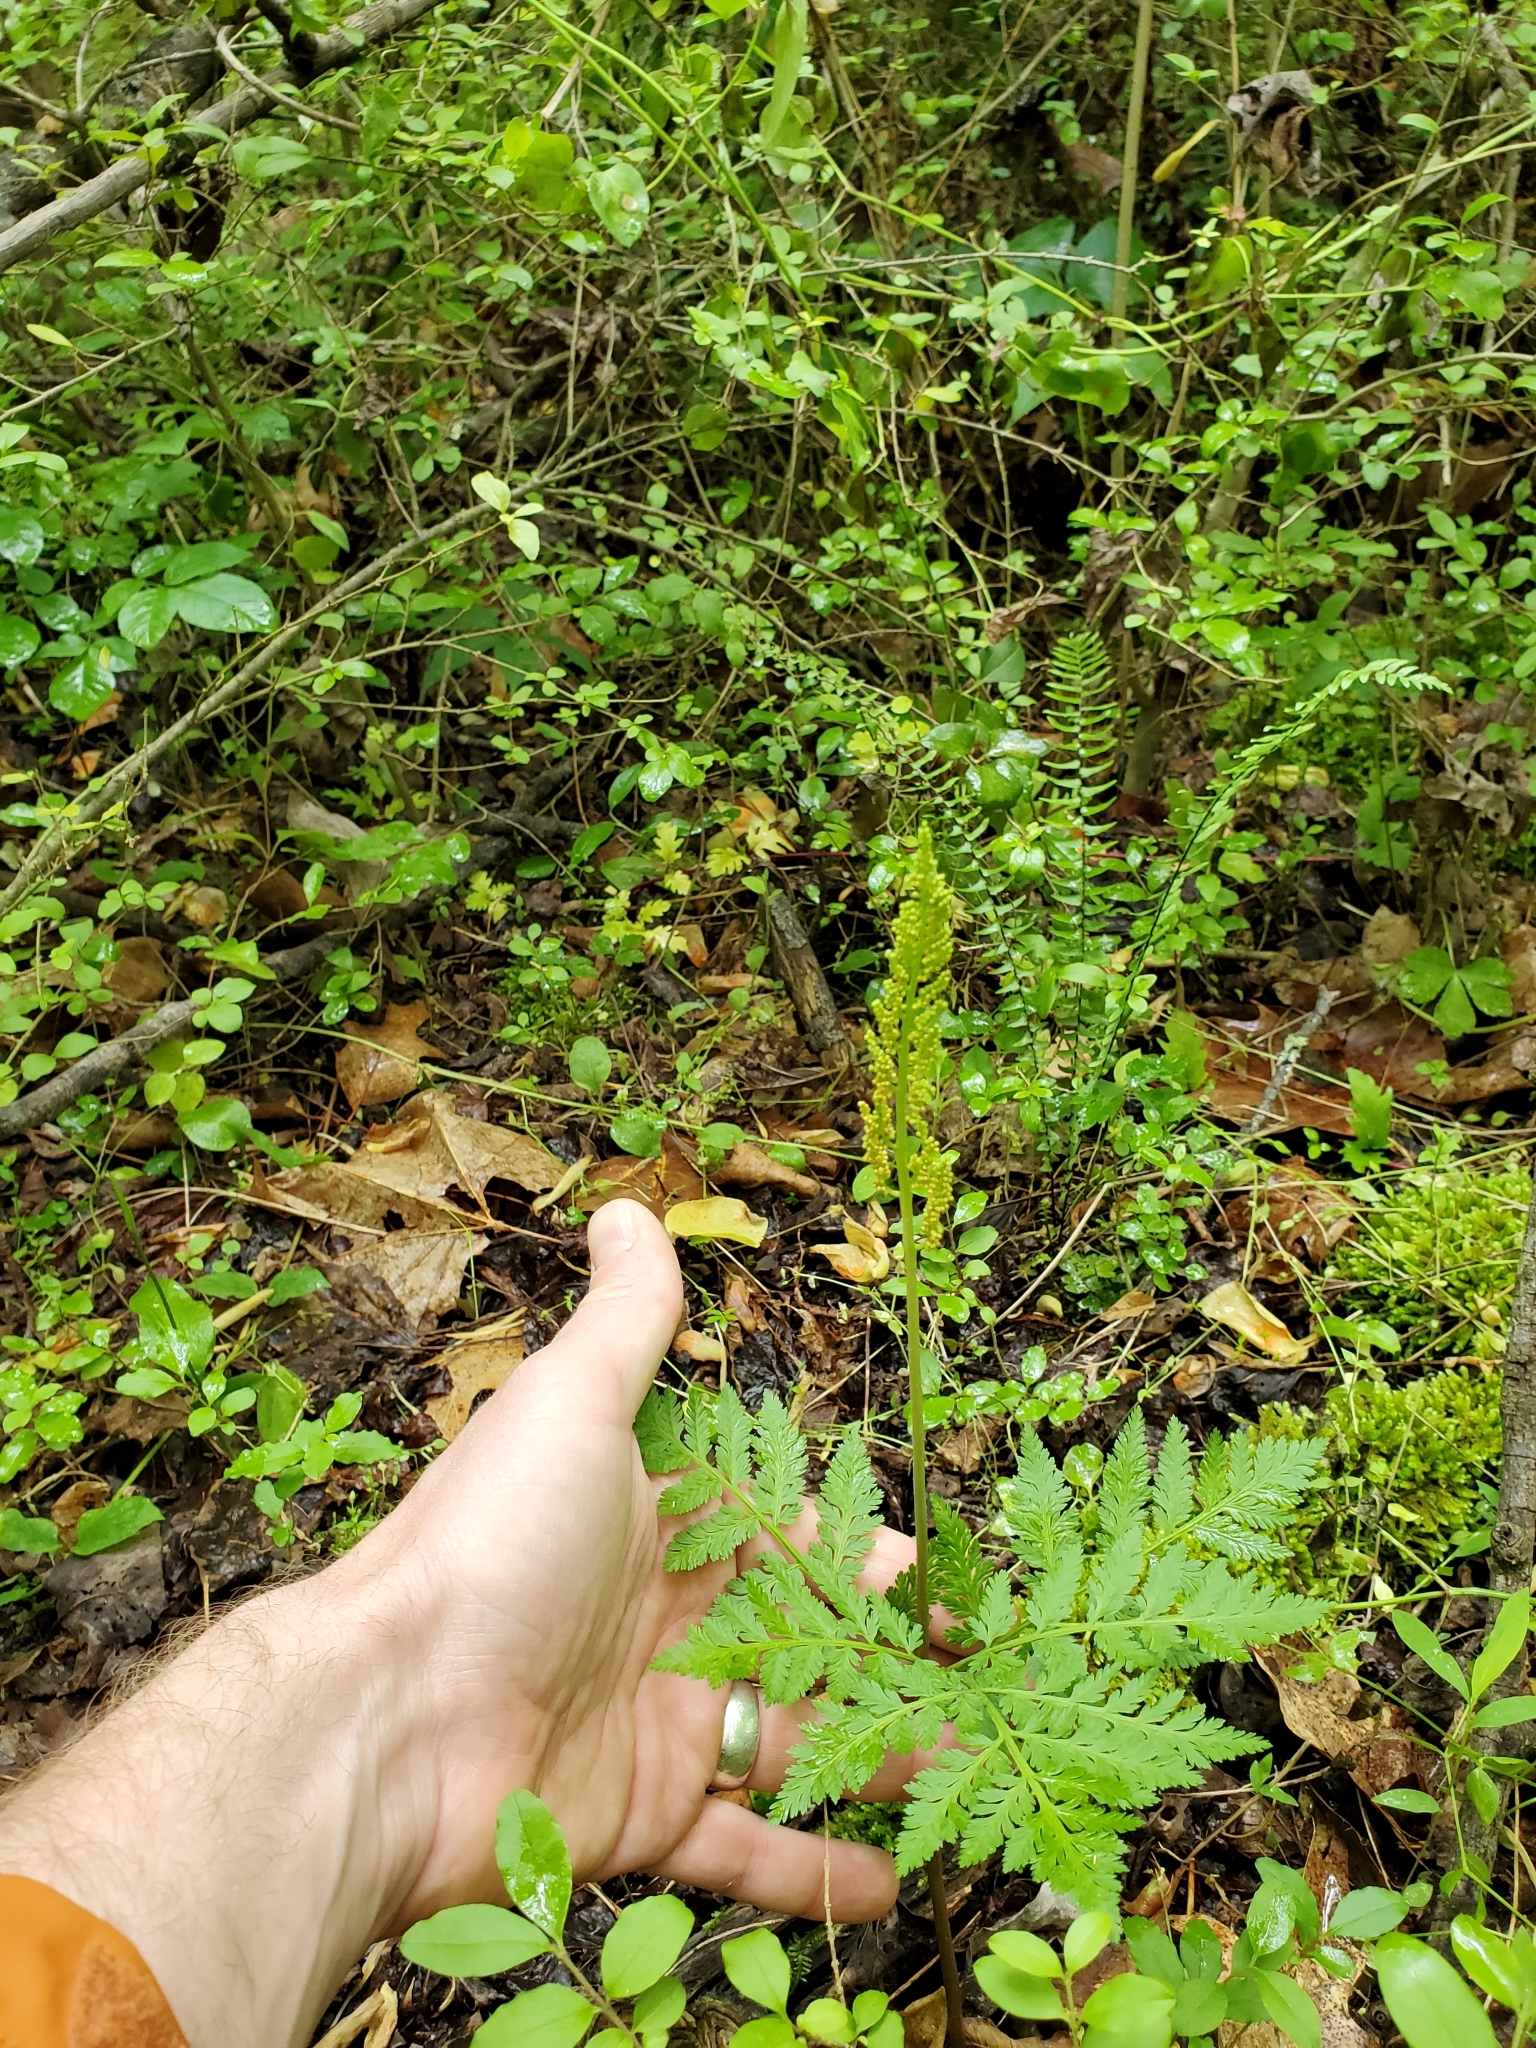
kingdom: Plantae
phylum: Tracheophyta
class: Polypodiopsida
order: Ophioglossales
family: Ophioglossaceae
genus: Botrypus
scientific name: Botrypus virginianus
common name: Common grapefern
